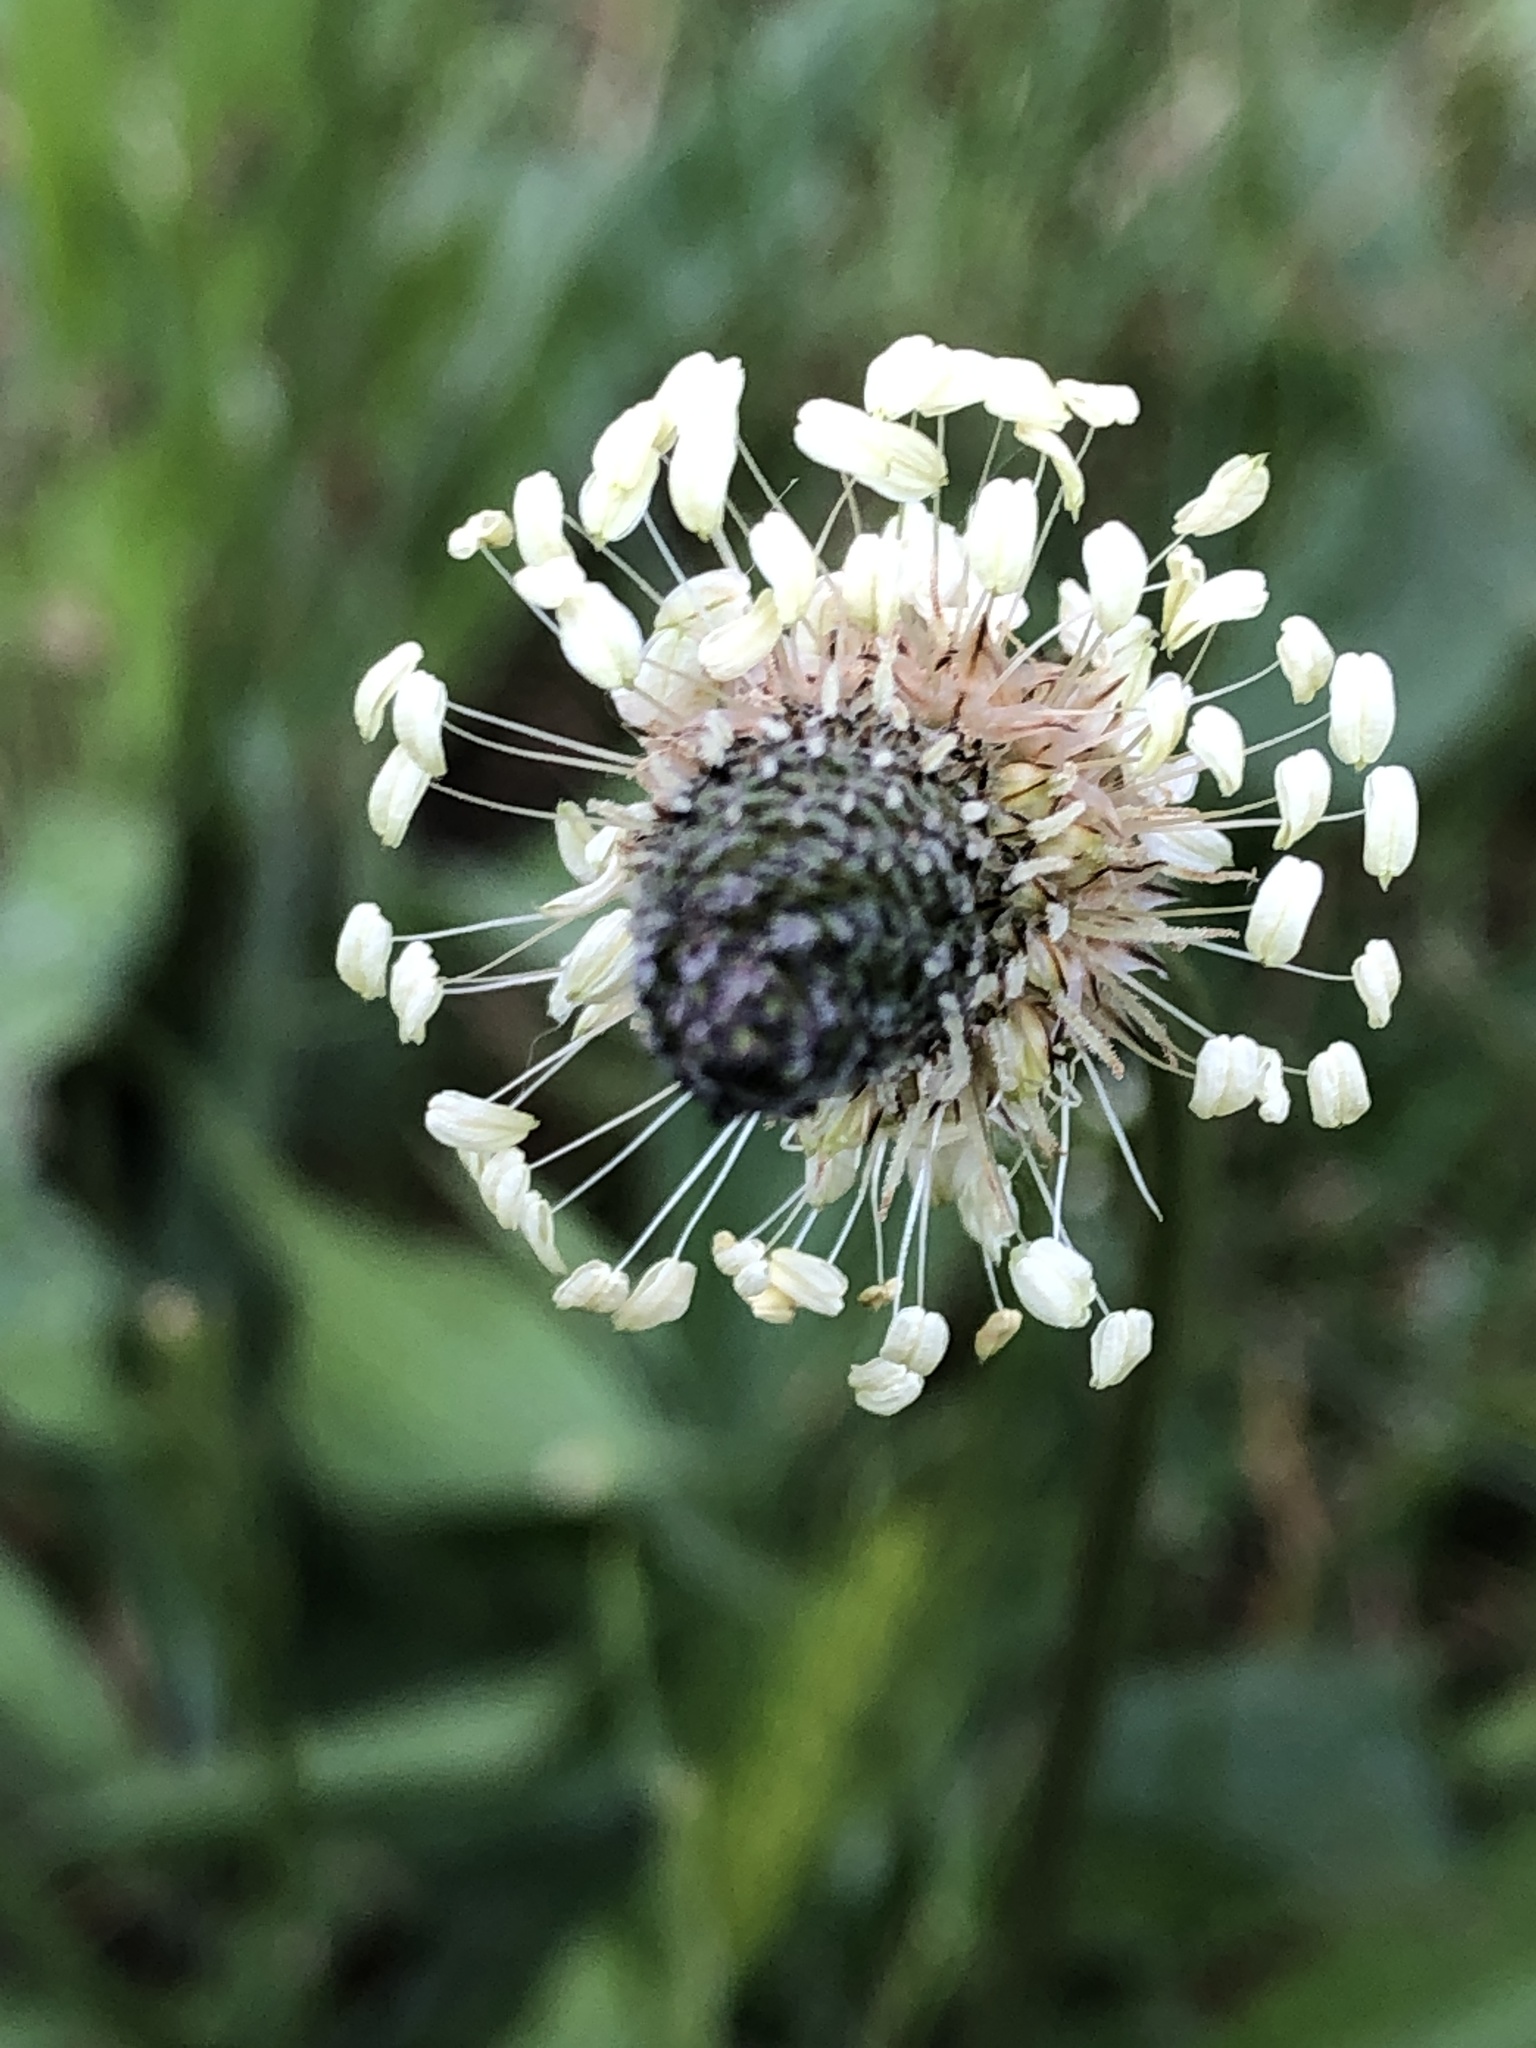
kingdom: Plantae
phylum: Tracheophyta
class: Magnoliopsida
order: Lamiales
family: Plantaginaceae
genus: Plantago
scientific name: Plantago lanceolata
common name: Ribwort plantain
